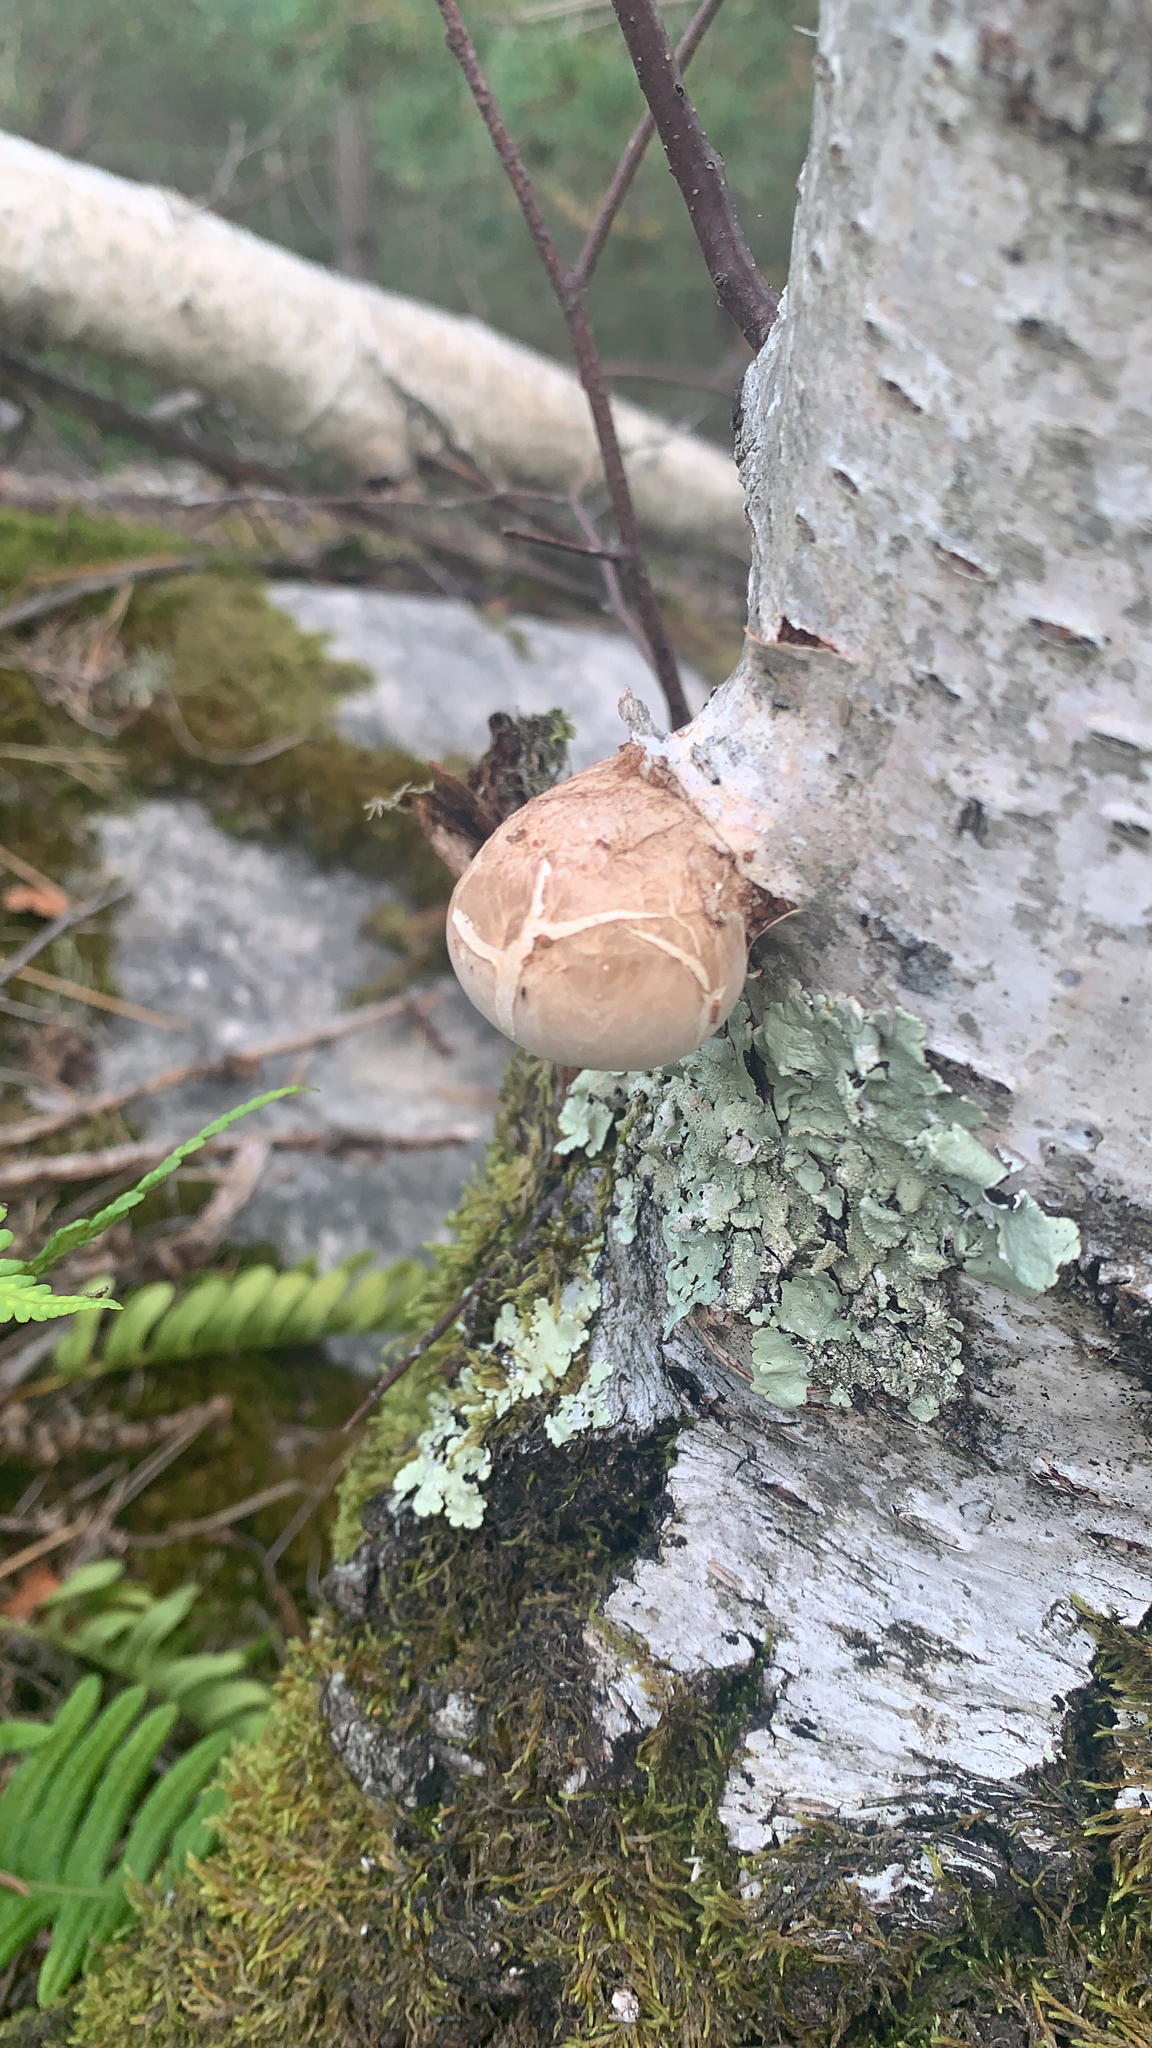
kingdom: Fungi
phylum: Basidiomycota
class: Agaricomycetes
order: Polyporales
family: Fomitopsidaceae
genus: Fomitopsis
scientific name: Fomitopsis betulina
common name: Birch polypore
